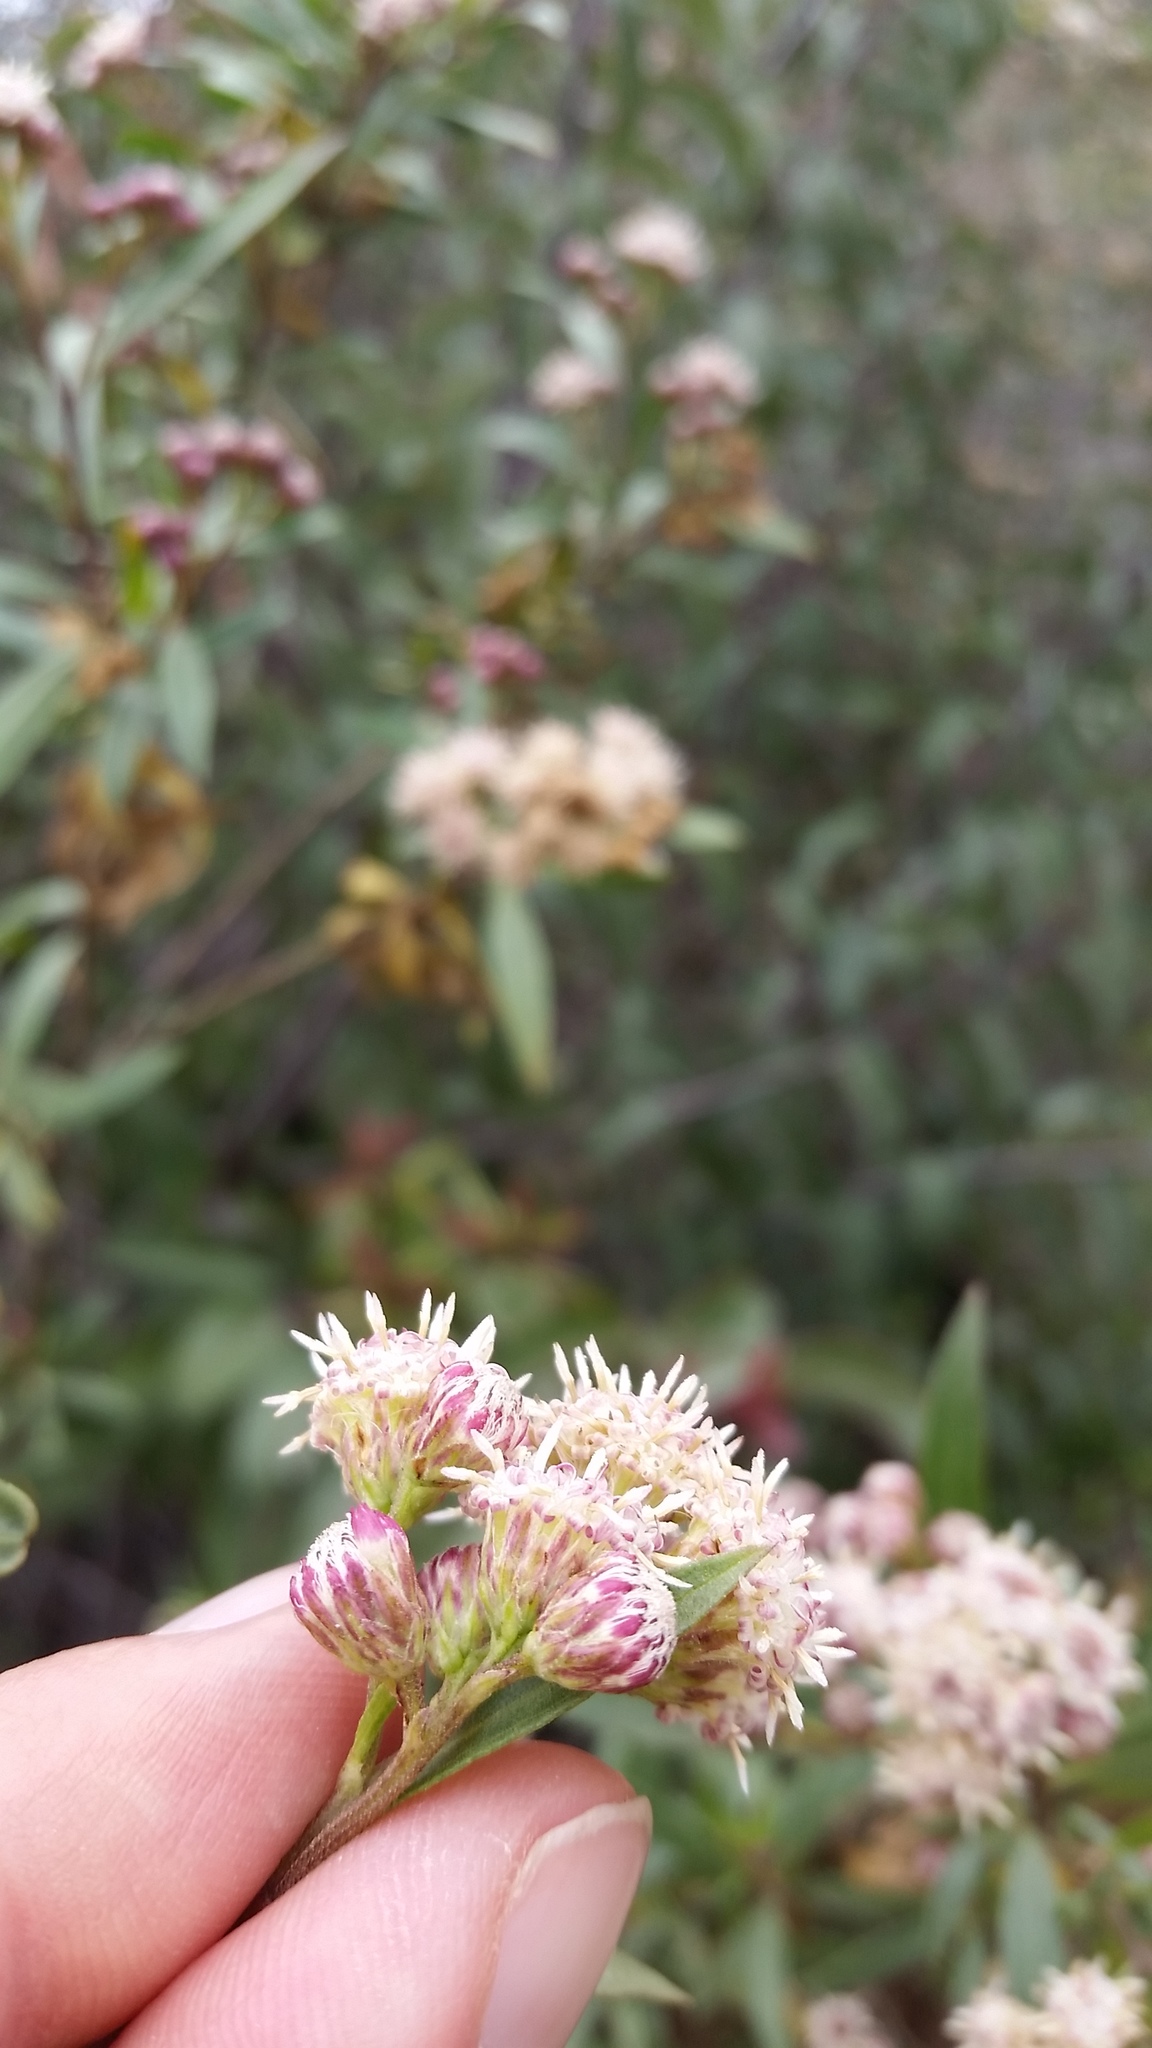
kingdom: Plantae
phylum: Tracheophyta
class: Magnoliopsida
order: Asterales
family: Asteraceae
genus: Baccharis
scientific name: Baccharis salicifolia
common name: Sticky baccharis
